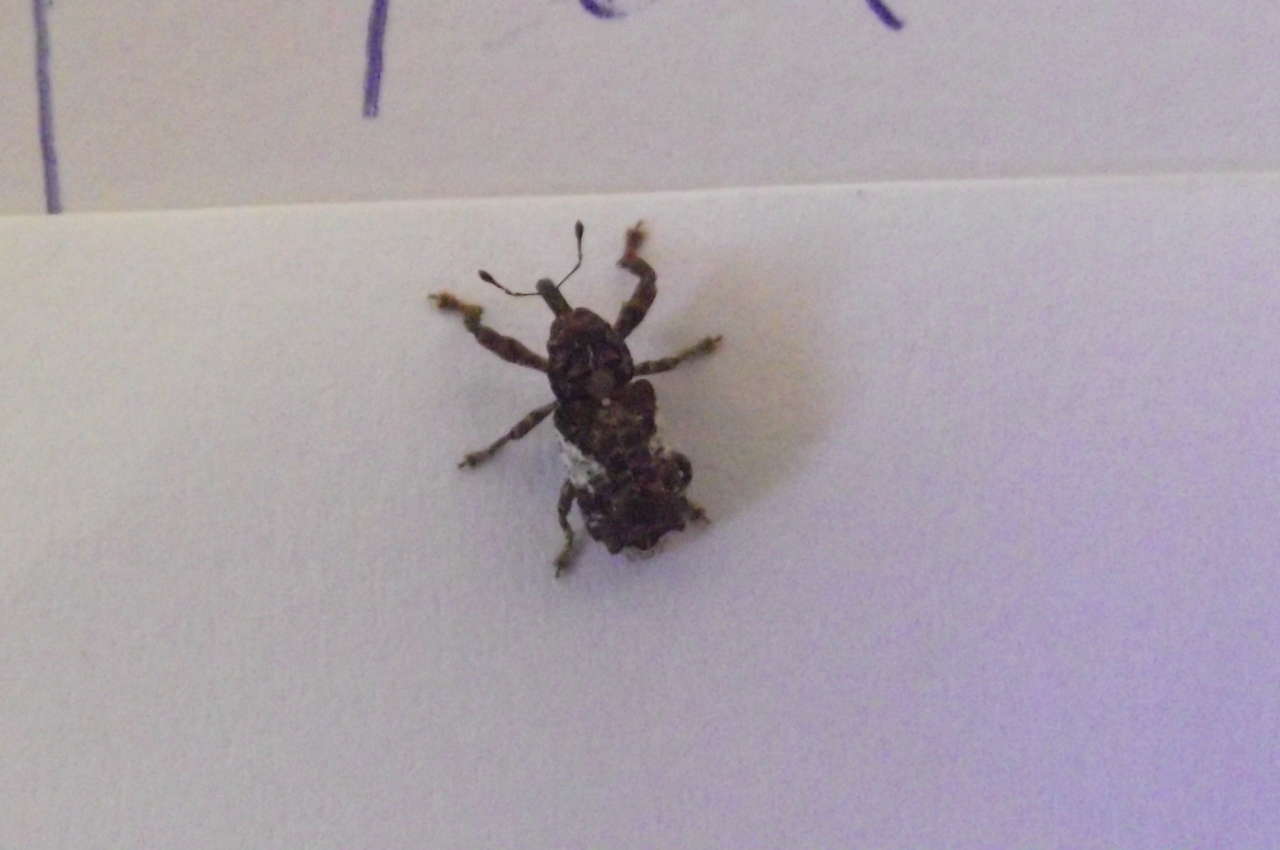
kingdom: Animalia
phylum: Arthropoda
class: Insecta
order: Coleoptera
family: Curculionidae
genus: Orthorhinus
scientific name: Orthorhinus klugii
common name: Vine weevil
